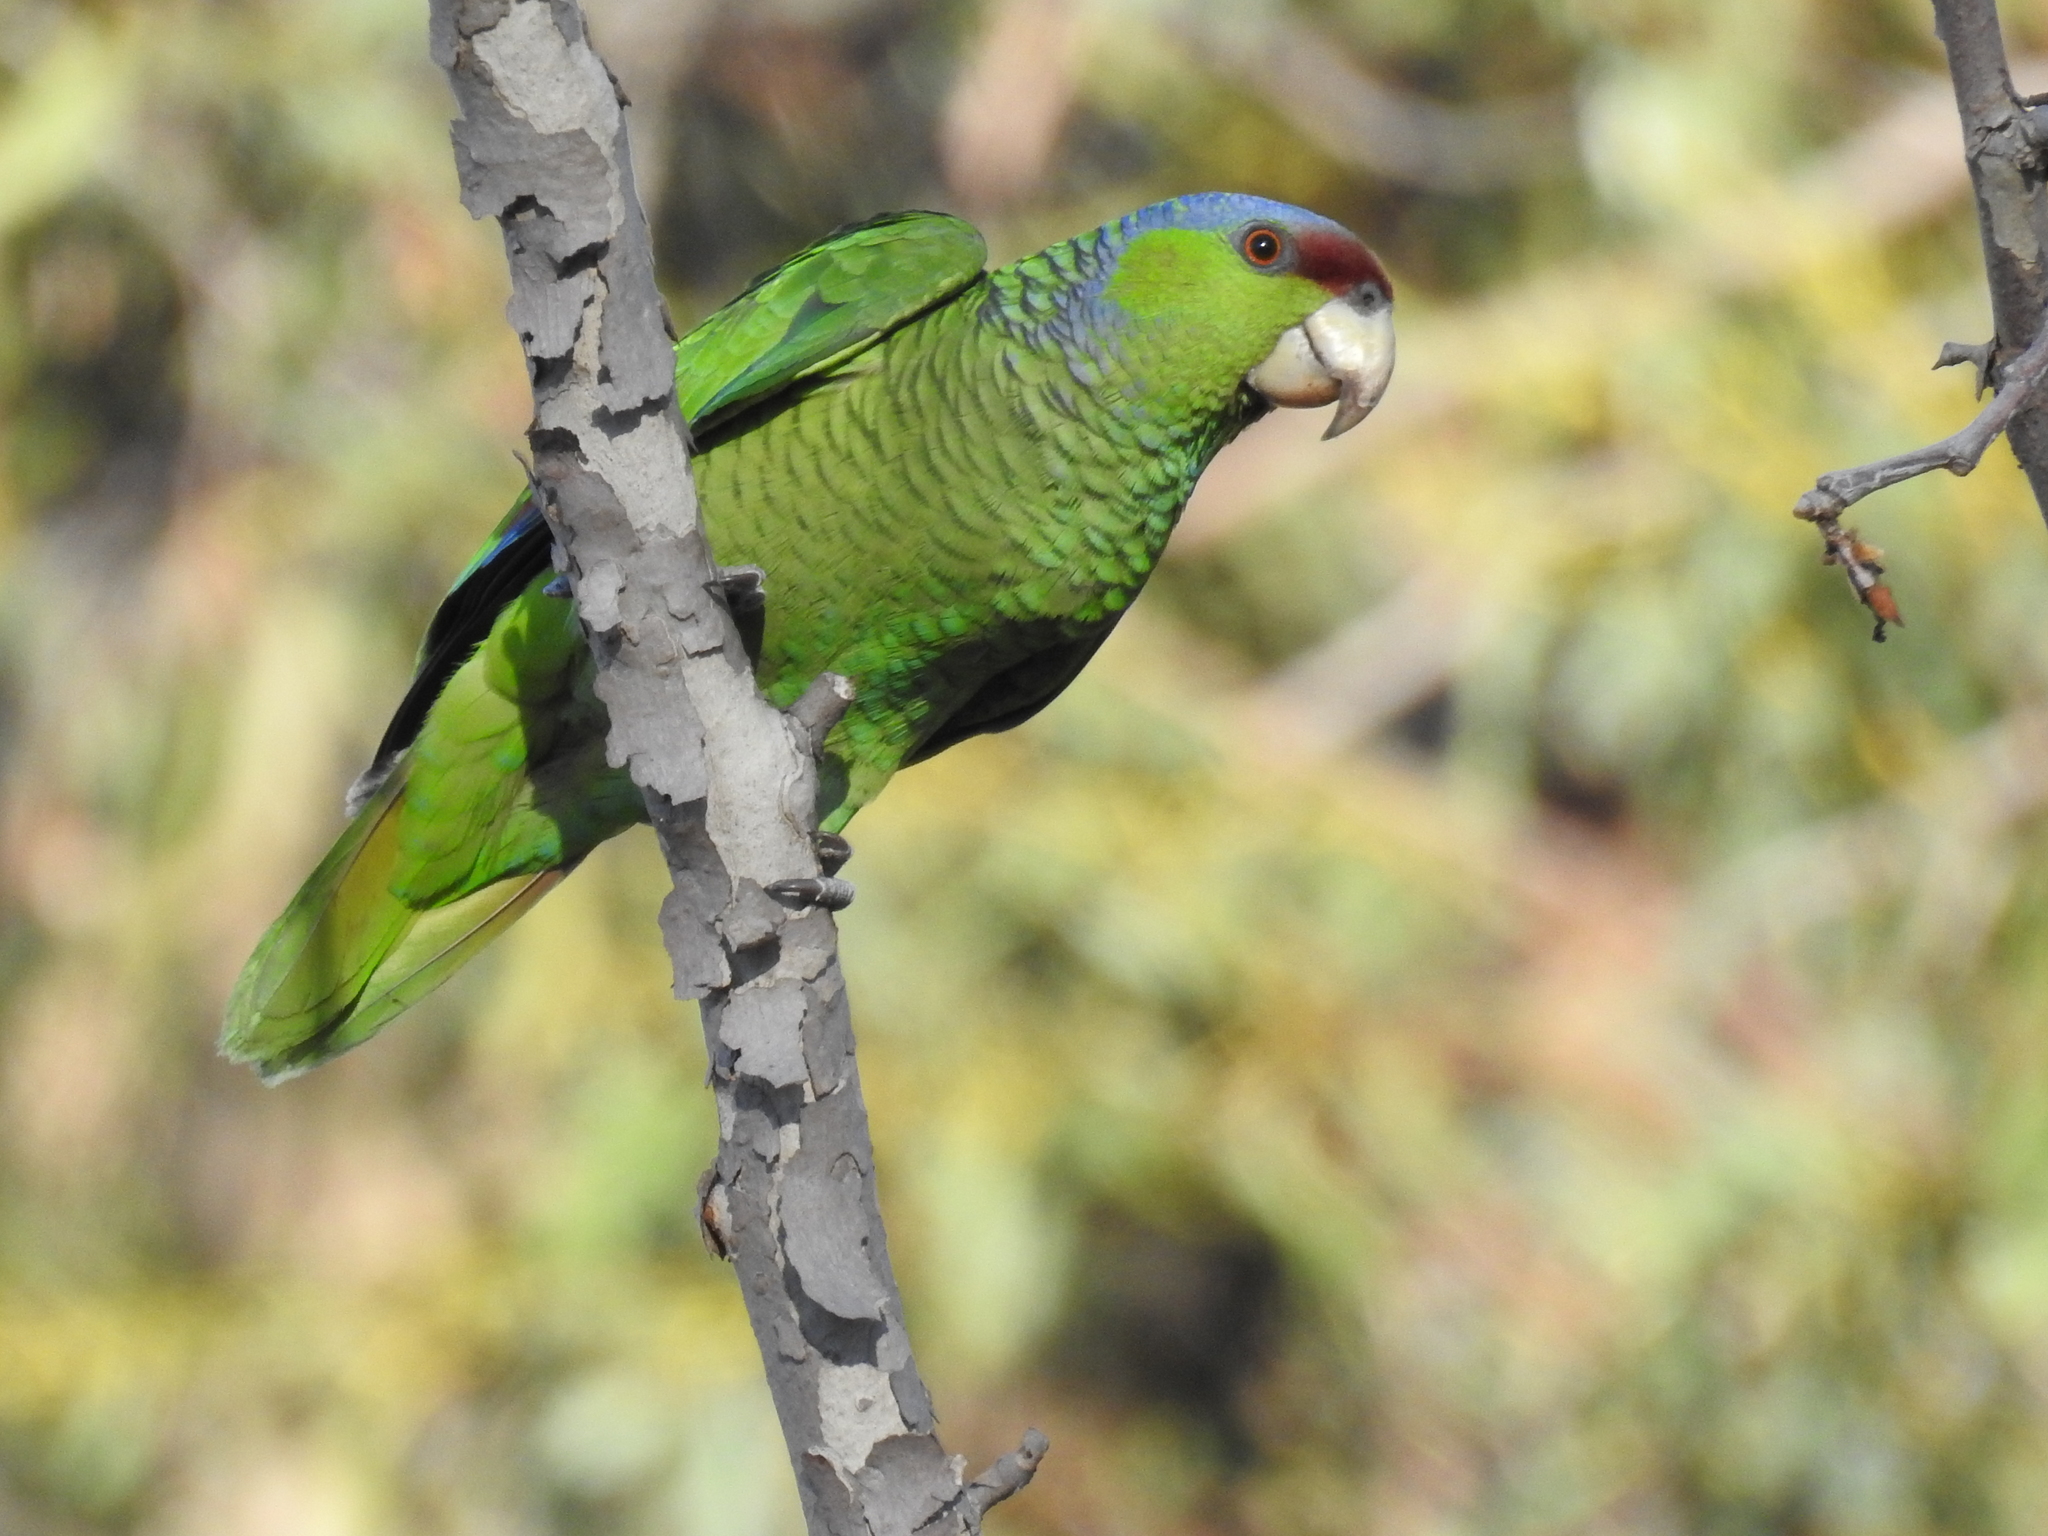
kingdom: Animalia
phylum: Chordata
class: Aves
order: Psittaciformes
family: Psittacidae
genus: Amazona
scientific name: Amazona finschi
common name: Lilac-crowned amazon
